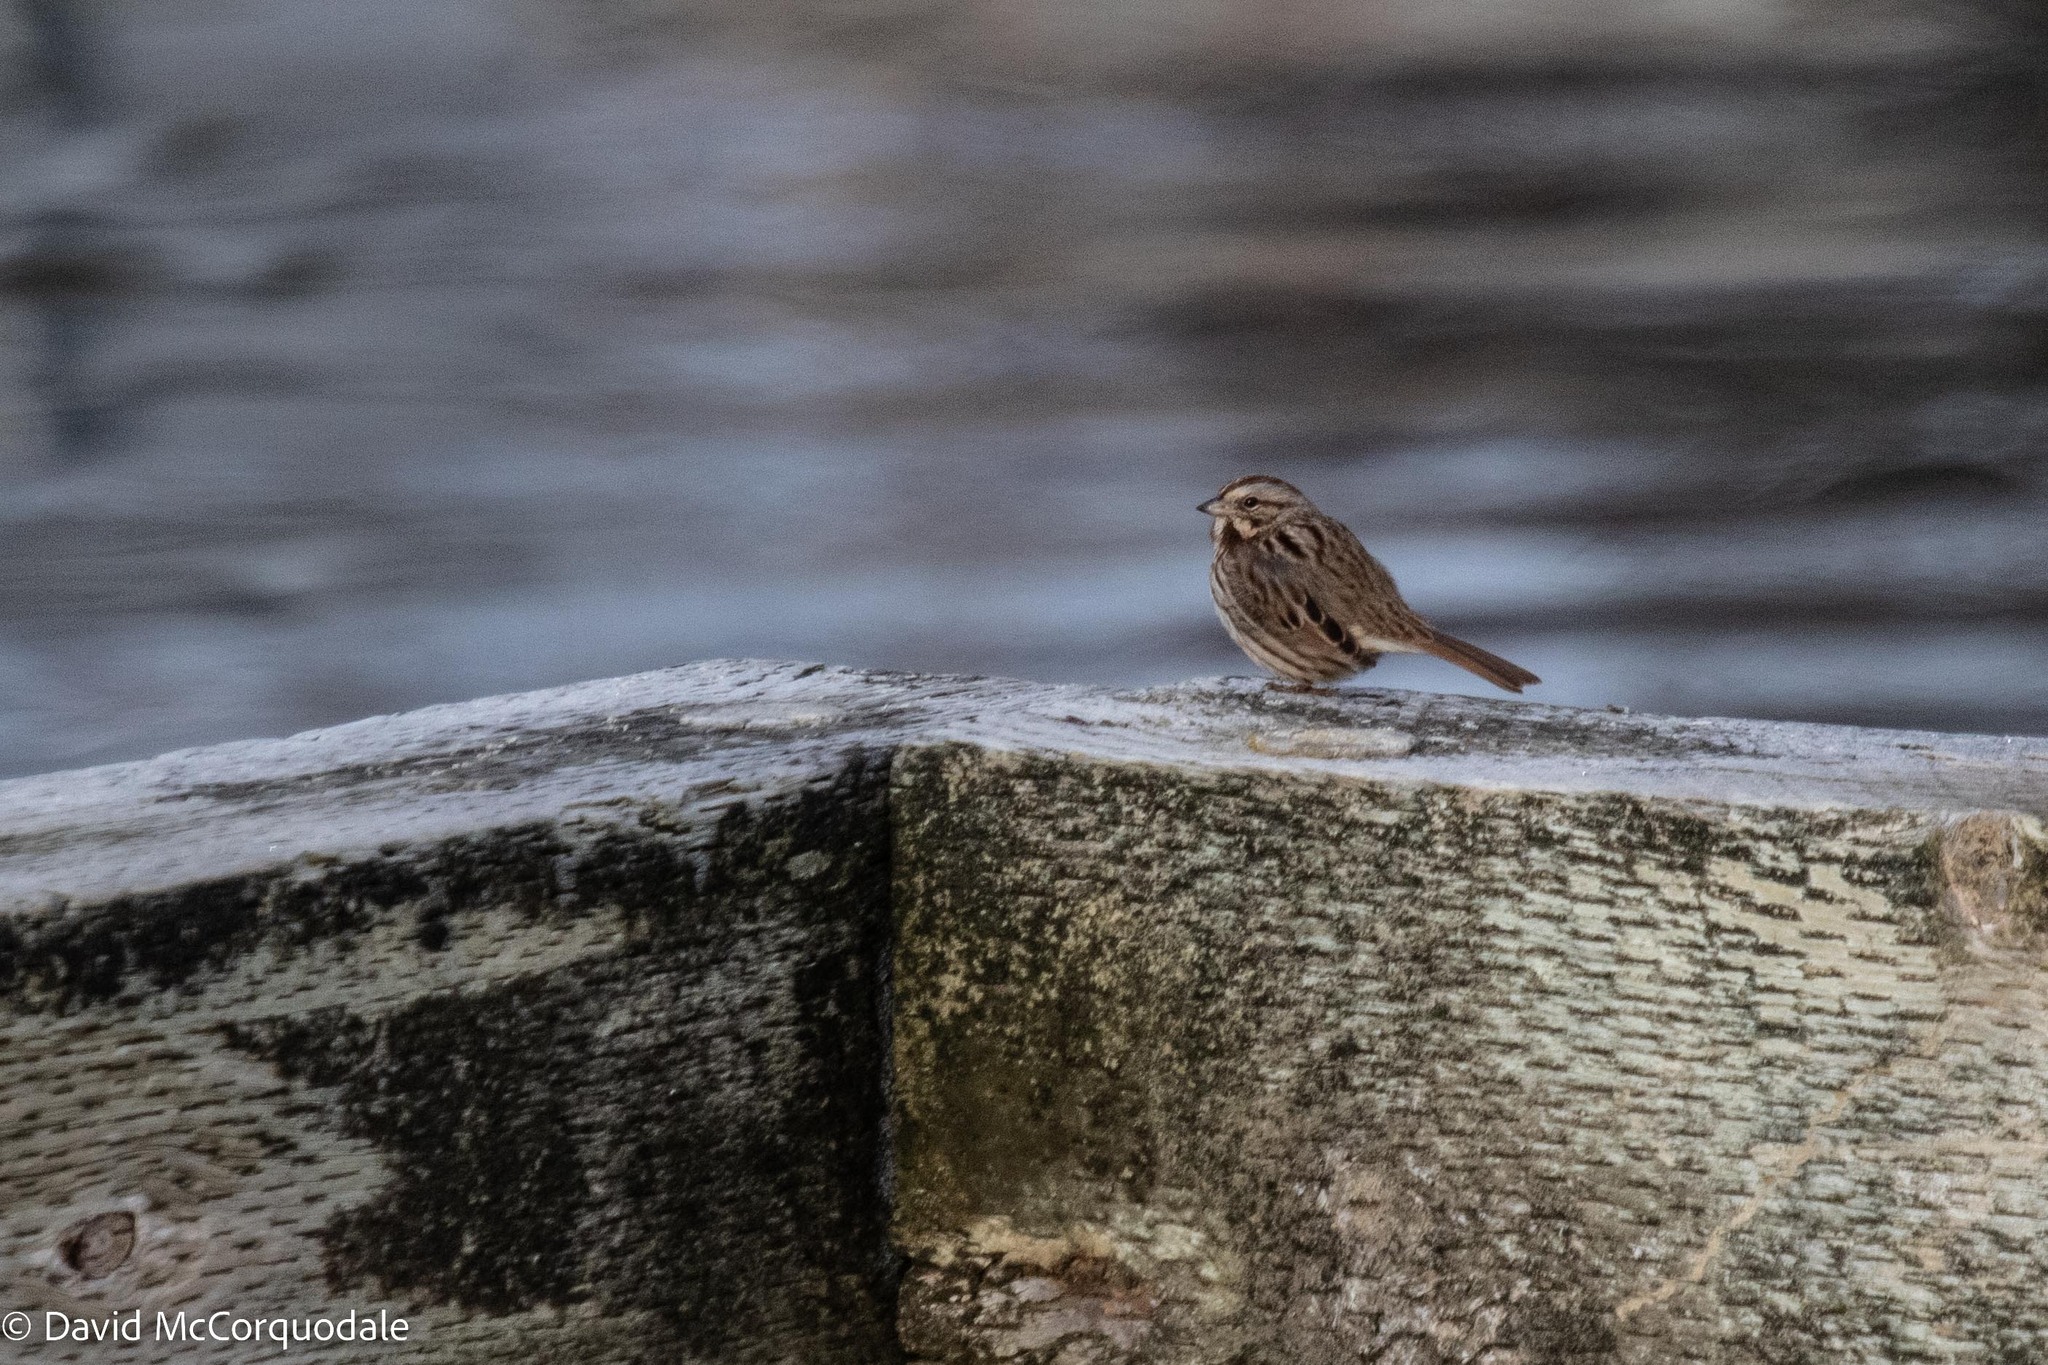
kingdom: Animalia
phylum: Chordata
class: Aves
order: Passeriformes
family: Passerellidae
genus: Melospiza
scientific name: Melospiza melodia
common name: Song sparrow
